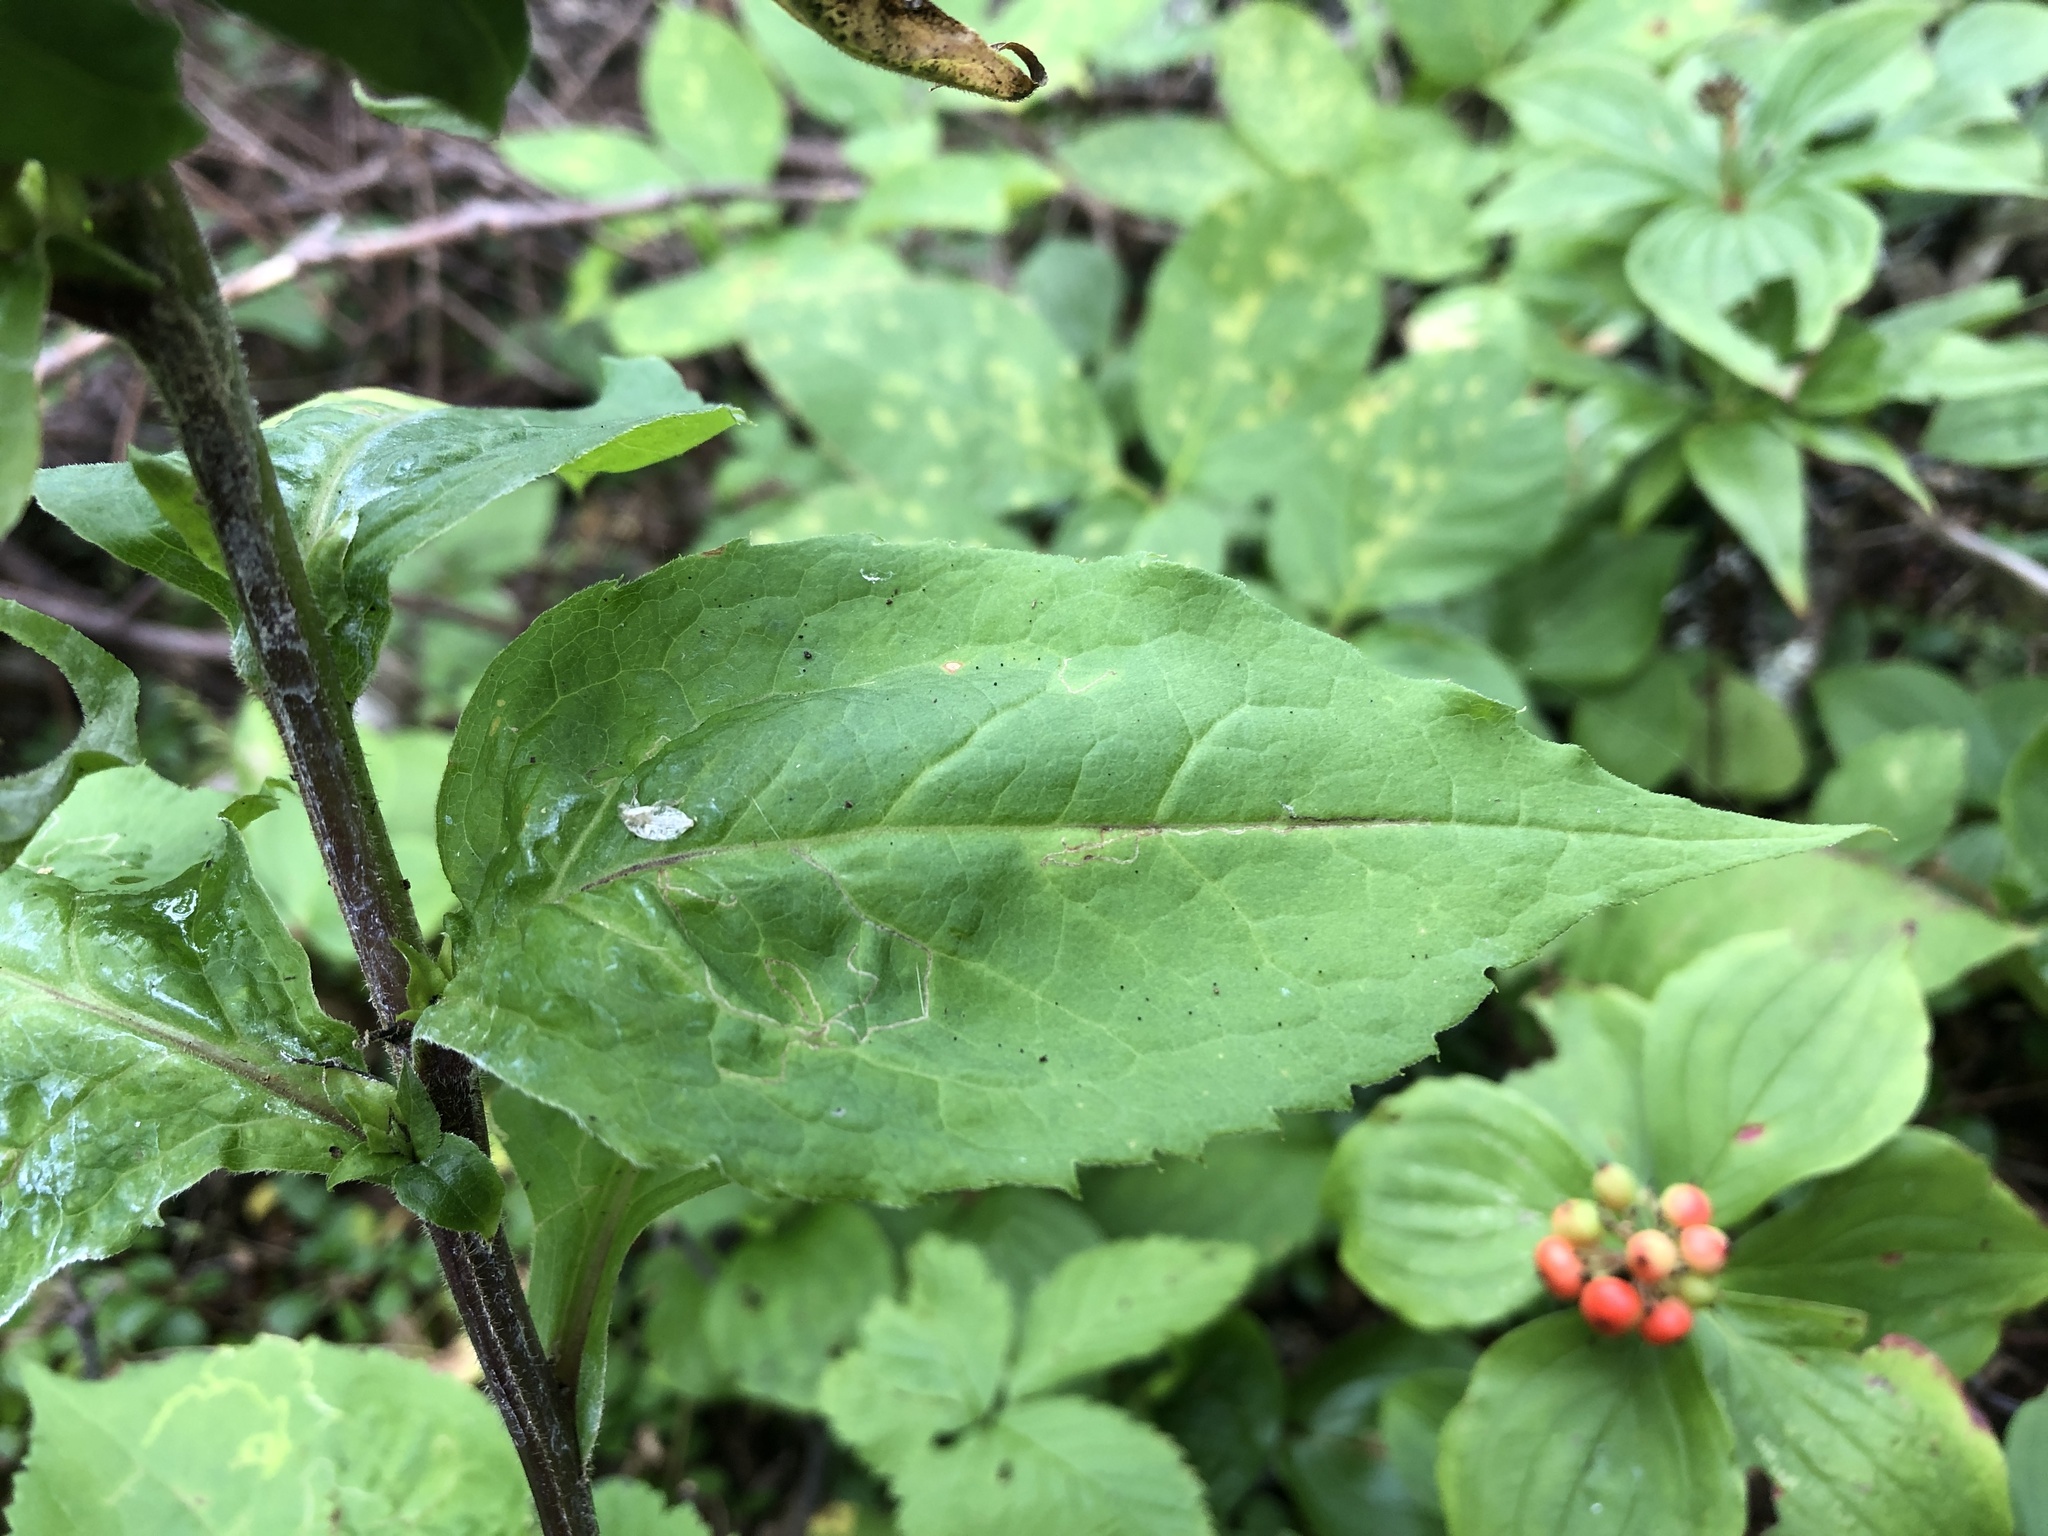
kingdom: Plantae
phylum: Tracheophyta
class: Magnoliopsida
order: Asterales
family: Asteraceae
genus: Solidago
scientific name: Solidago macrophylla
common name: Large-leaved goldenrod
